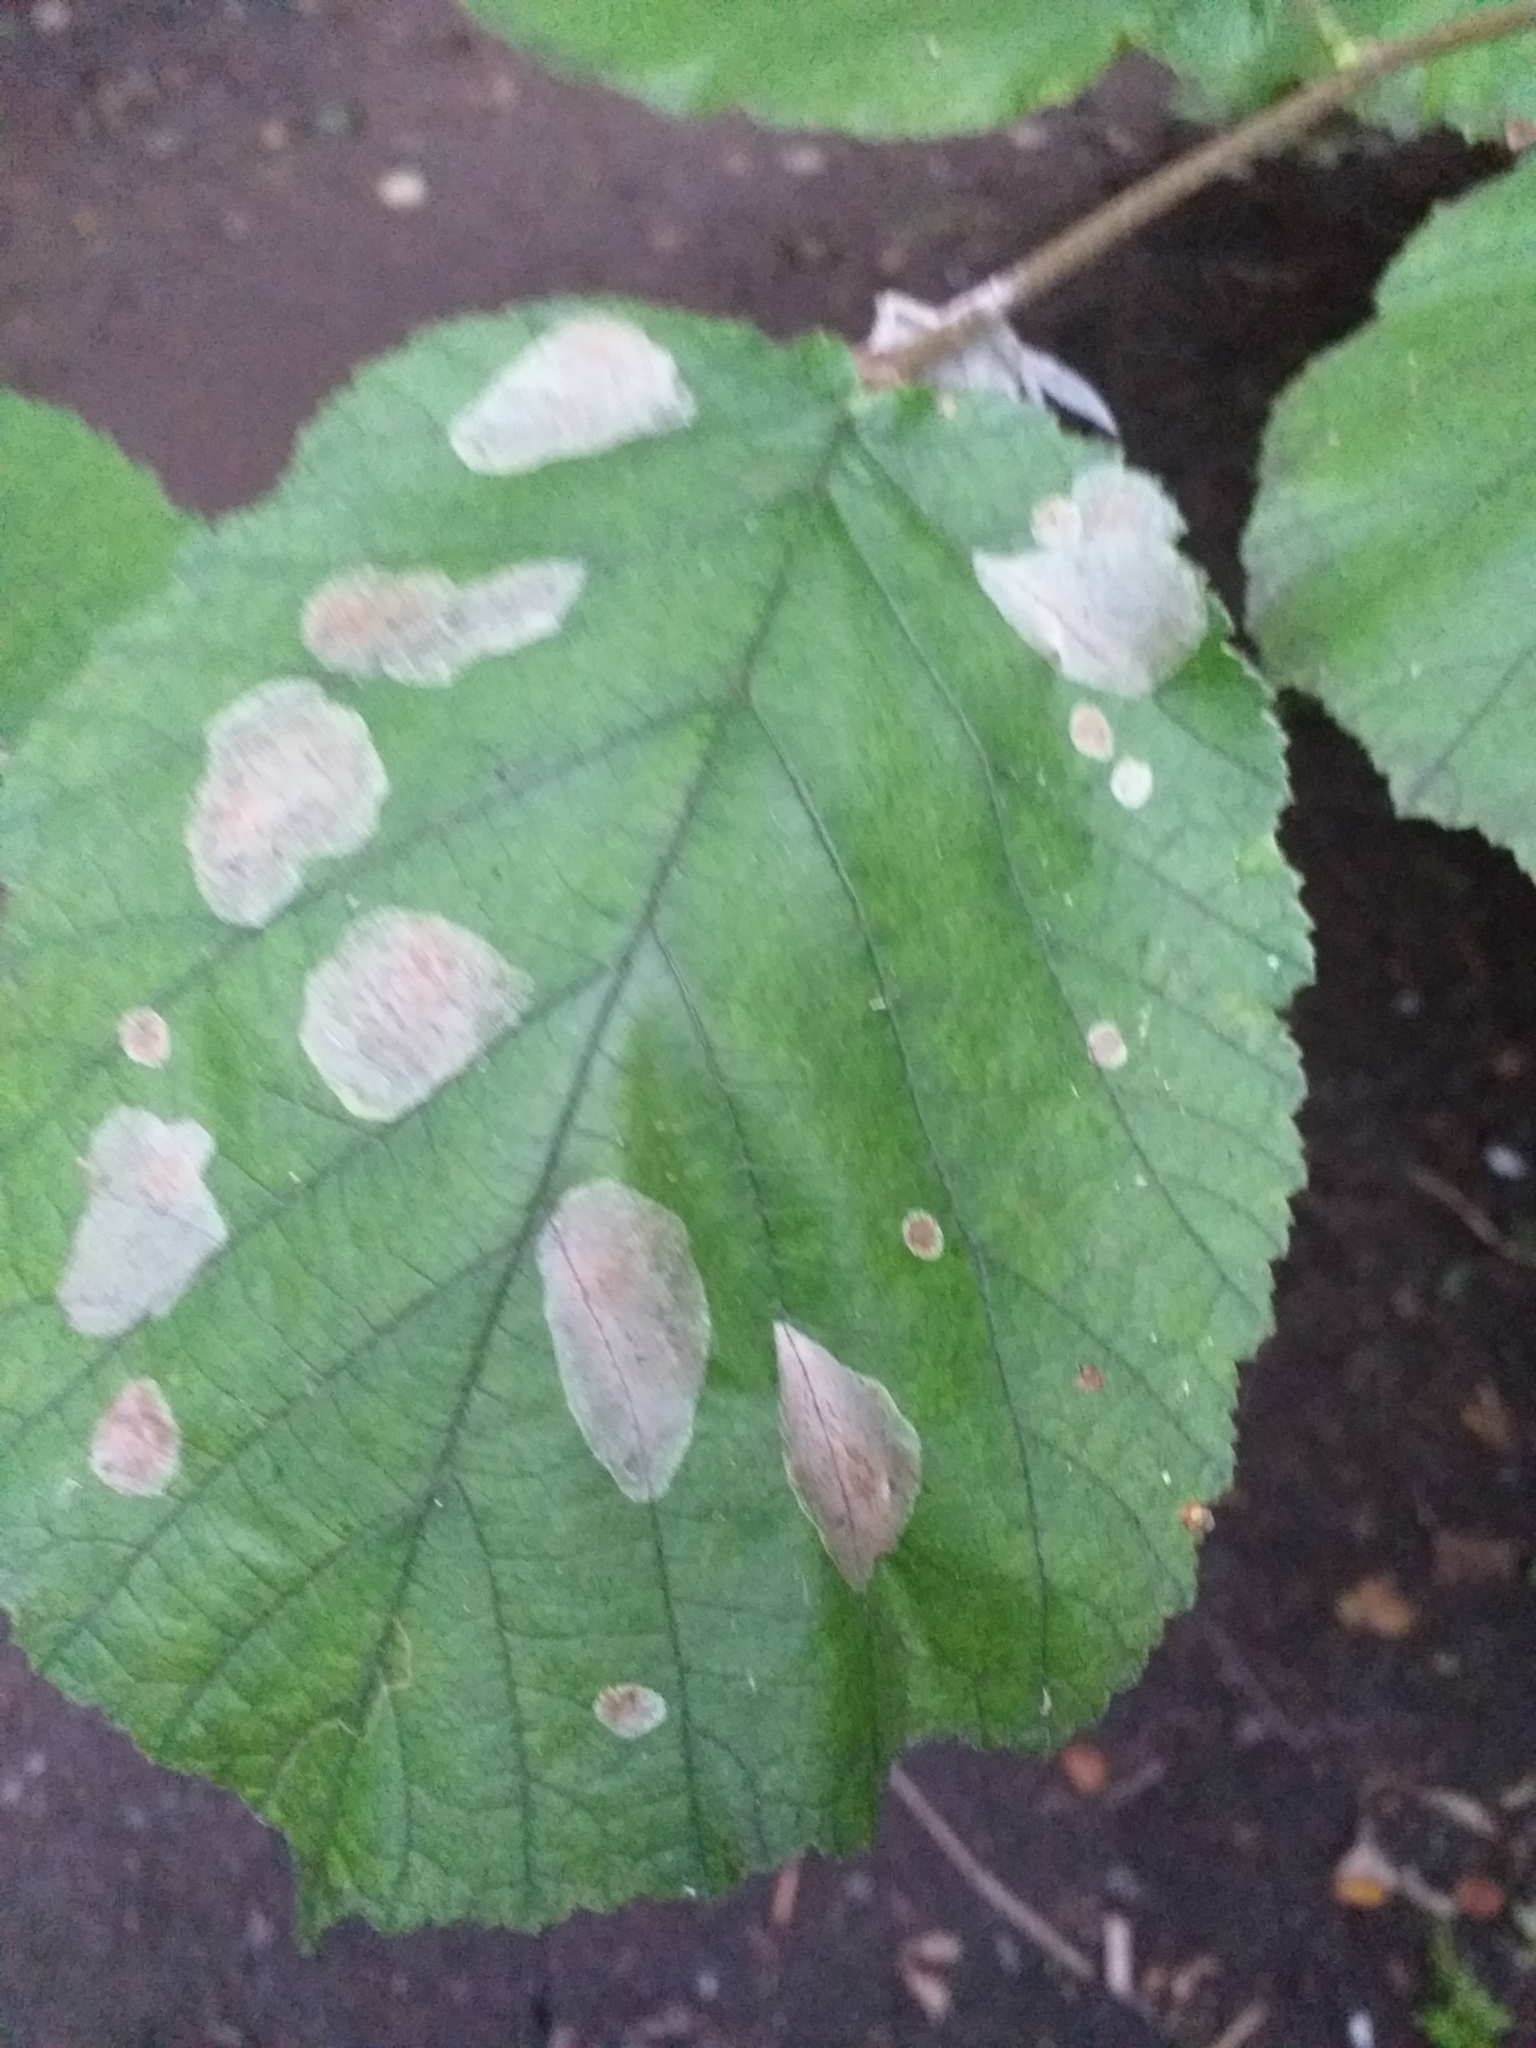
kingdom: Animalia
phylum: Arthropoda
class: Insecta
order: Lepidoptera
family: Gracillariidae
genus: Phyllonorycter
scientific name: Phyllonorycter coryli
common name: Nut-leaf blister moth
